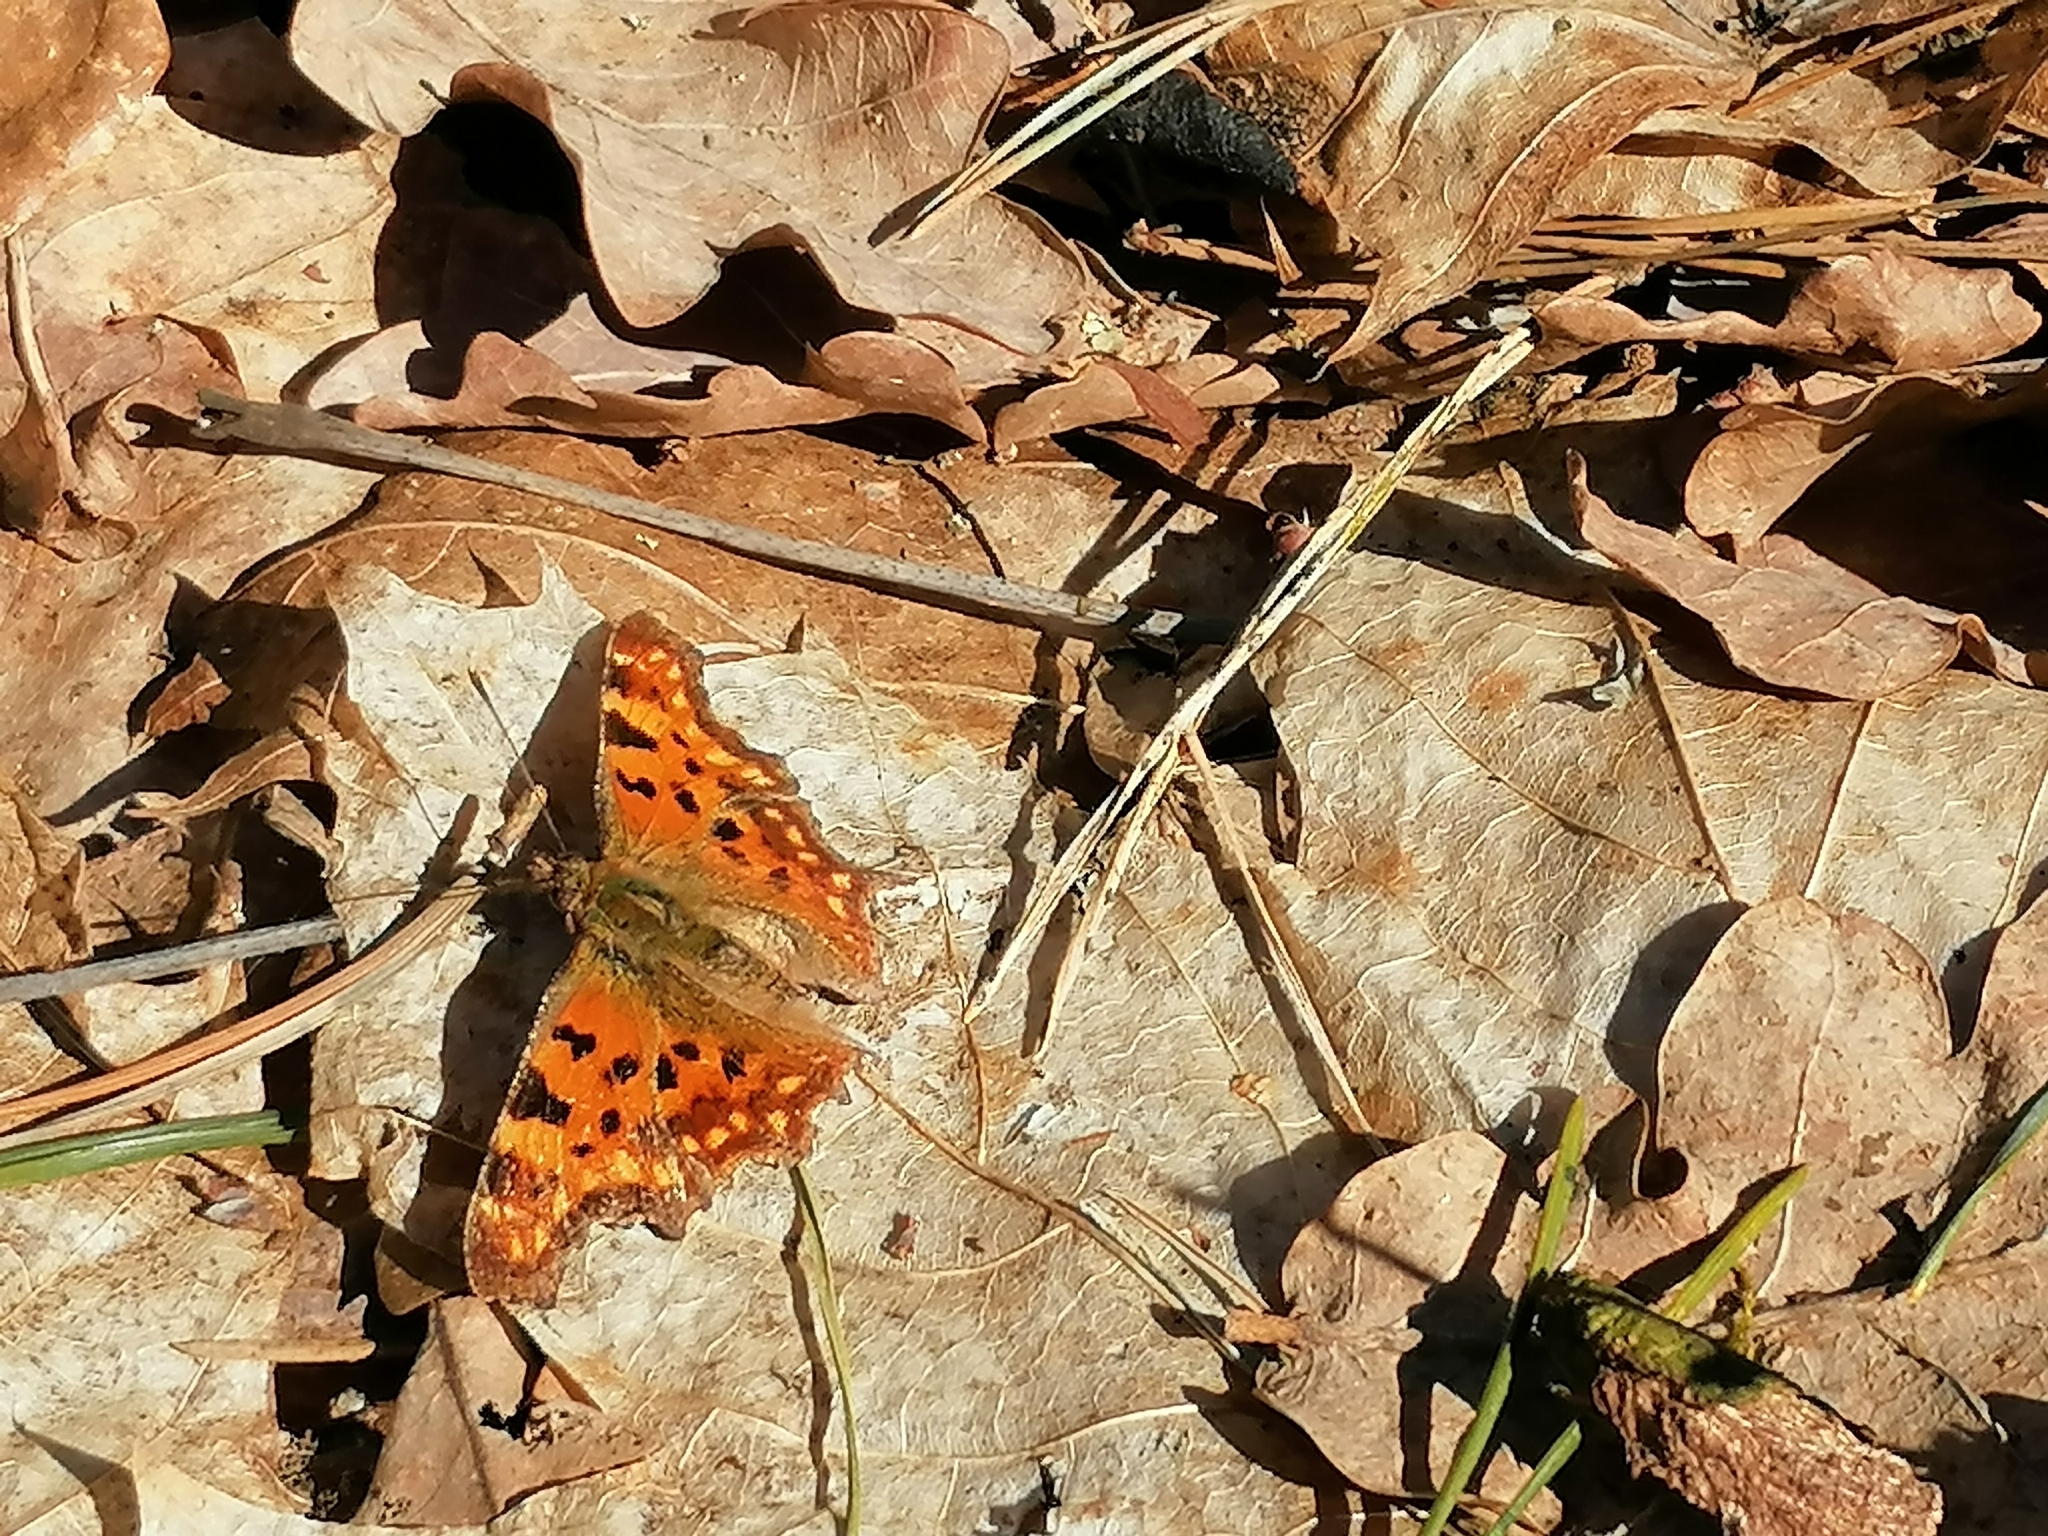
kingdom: Animalia
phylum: Arthropoda
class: Insecta
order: Lepidoptera
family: Nymphalidae
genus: Polygonia
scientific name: Polygonia c-album
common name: Comma
